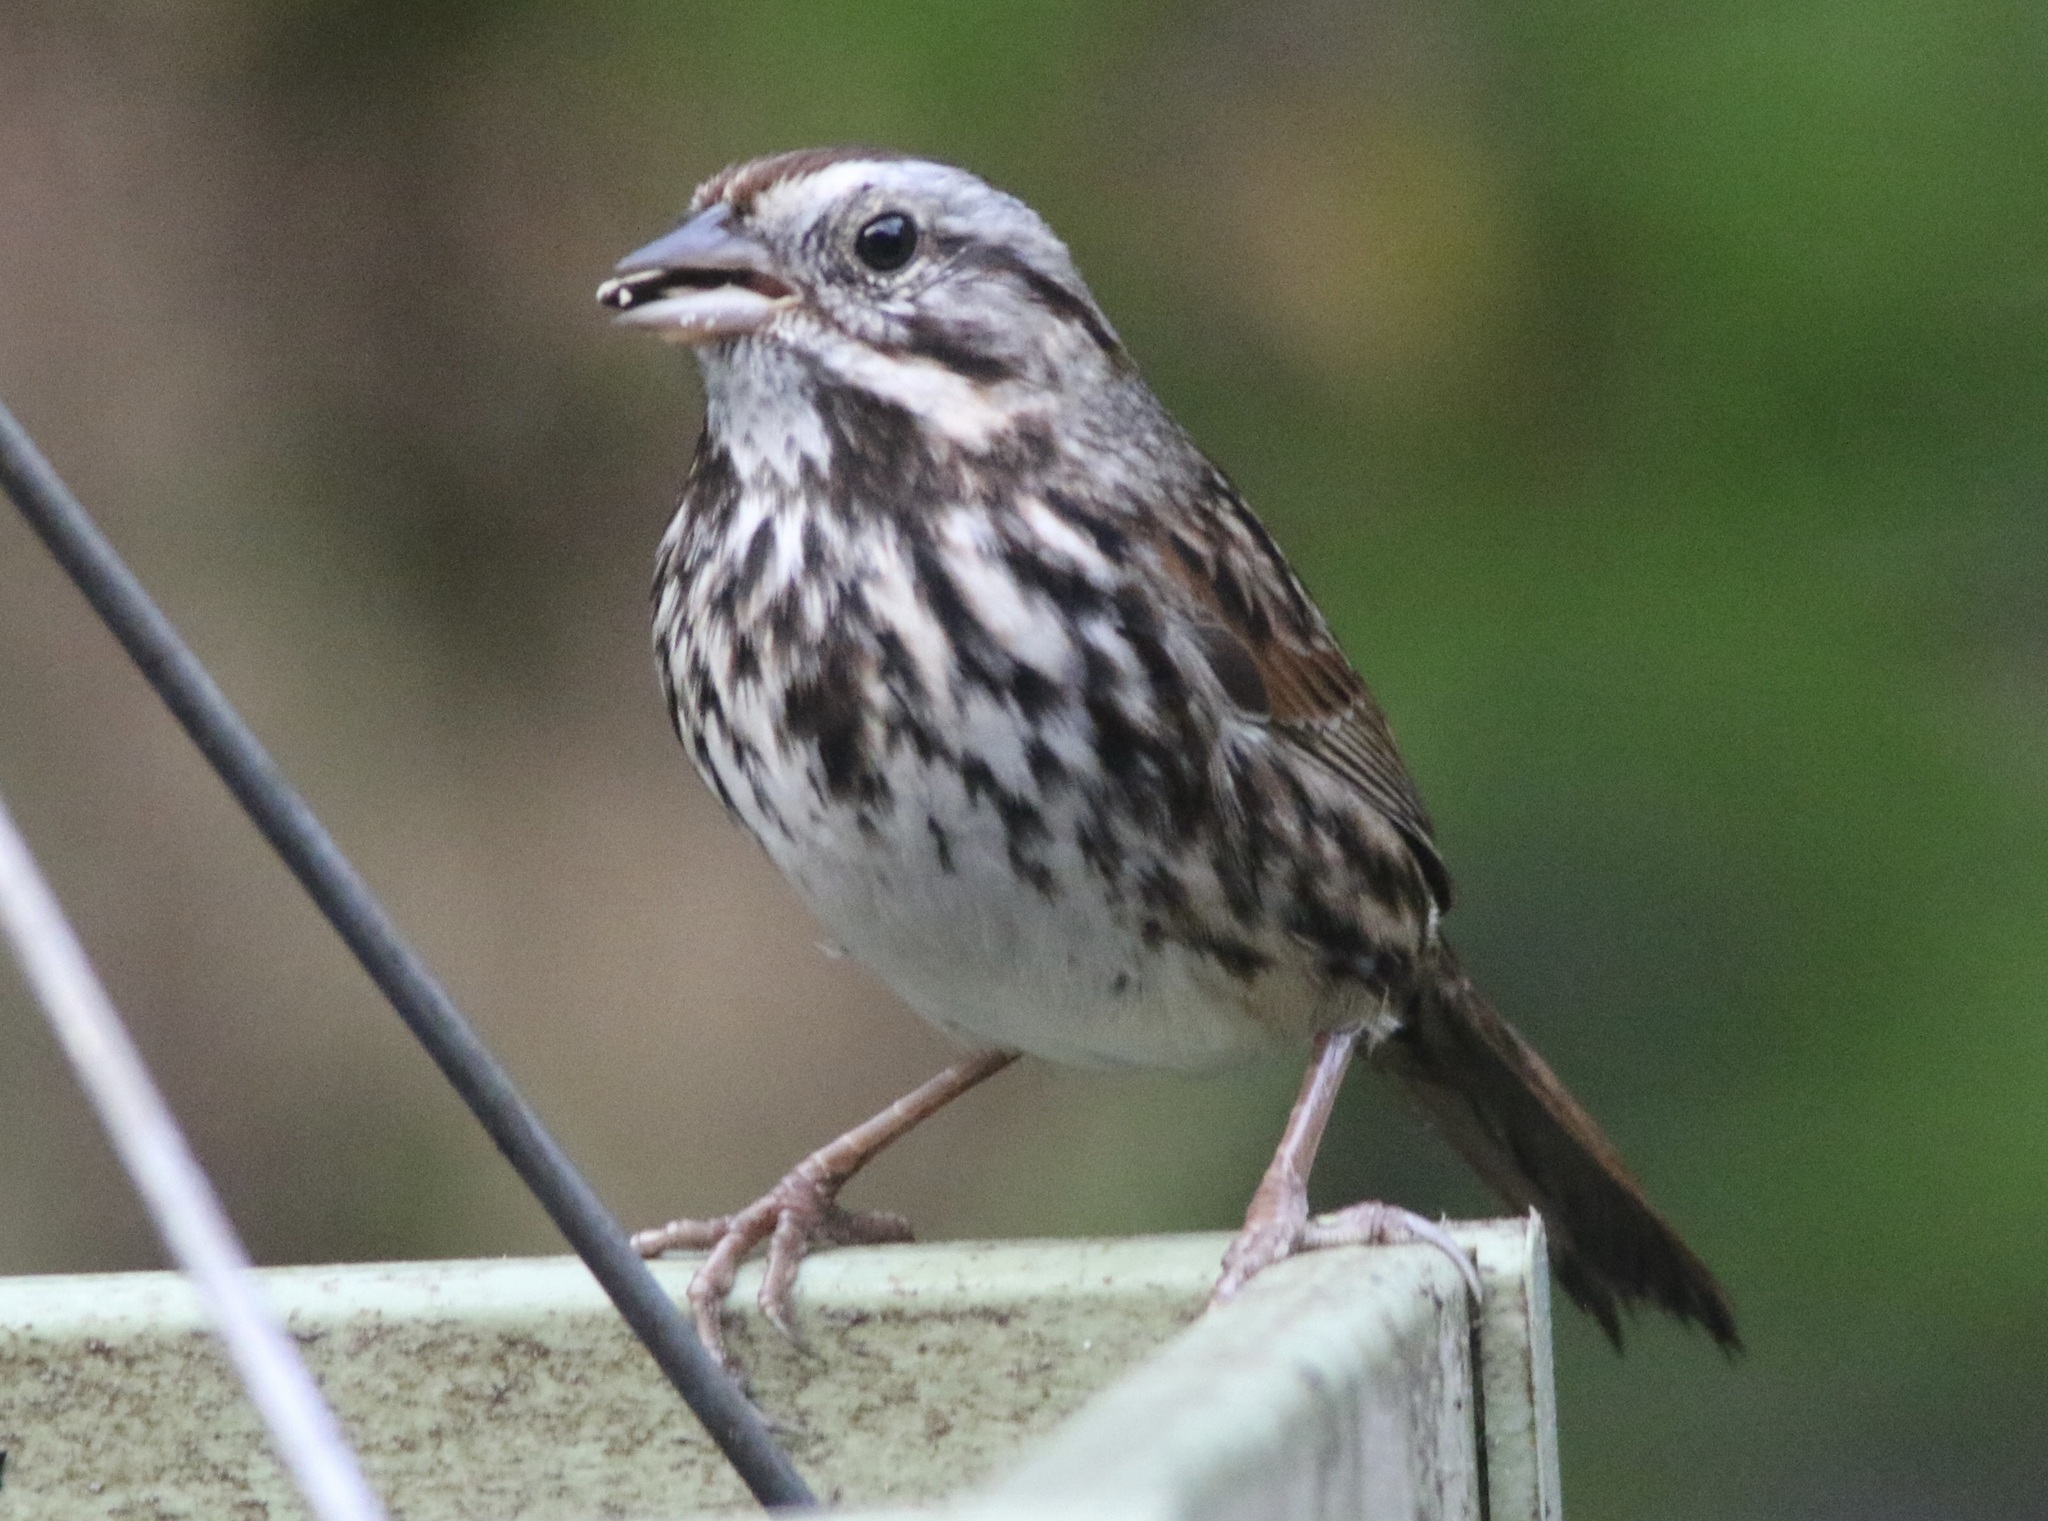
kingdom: Animalia
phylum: Chordata
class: Aves
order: Passeriformes
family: Passerellidae
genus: Melospiza
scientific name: Melospiza melodia
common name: Song sparrow
